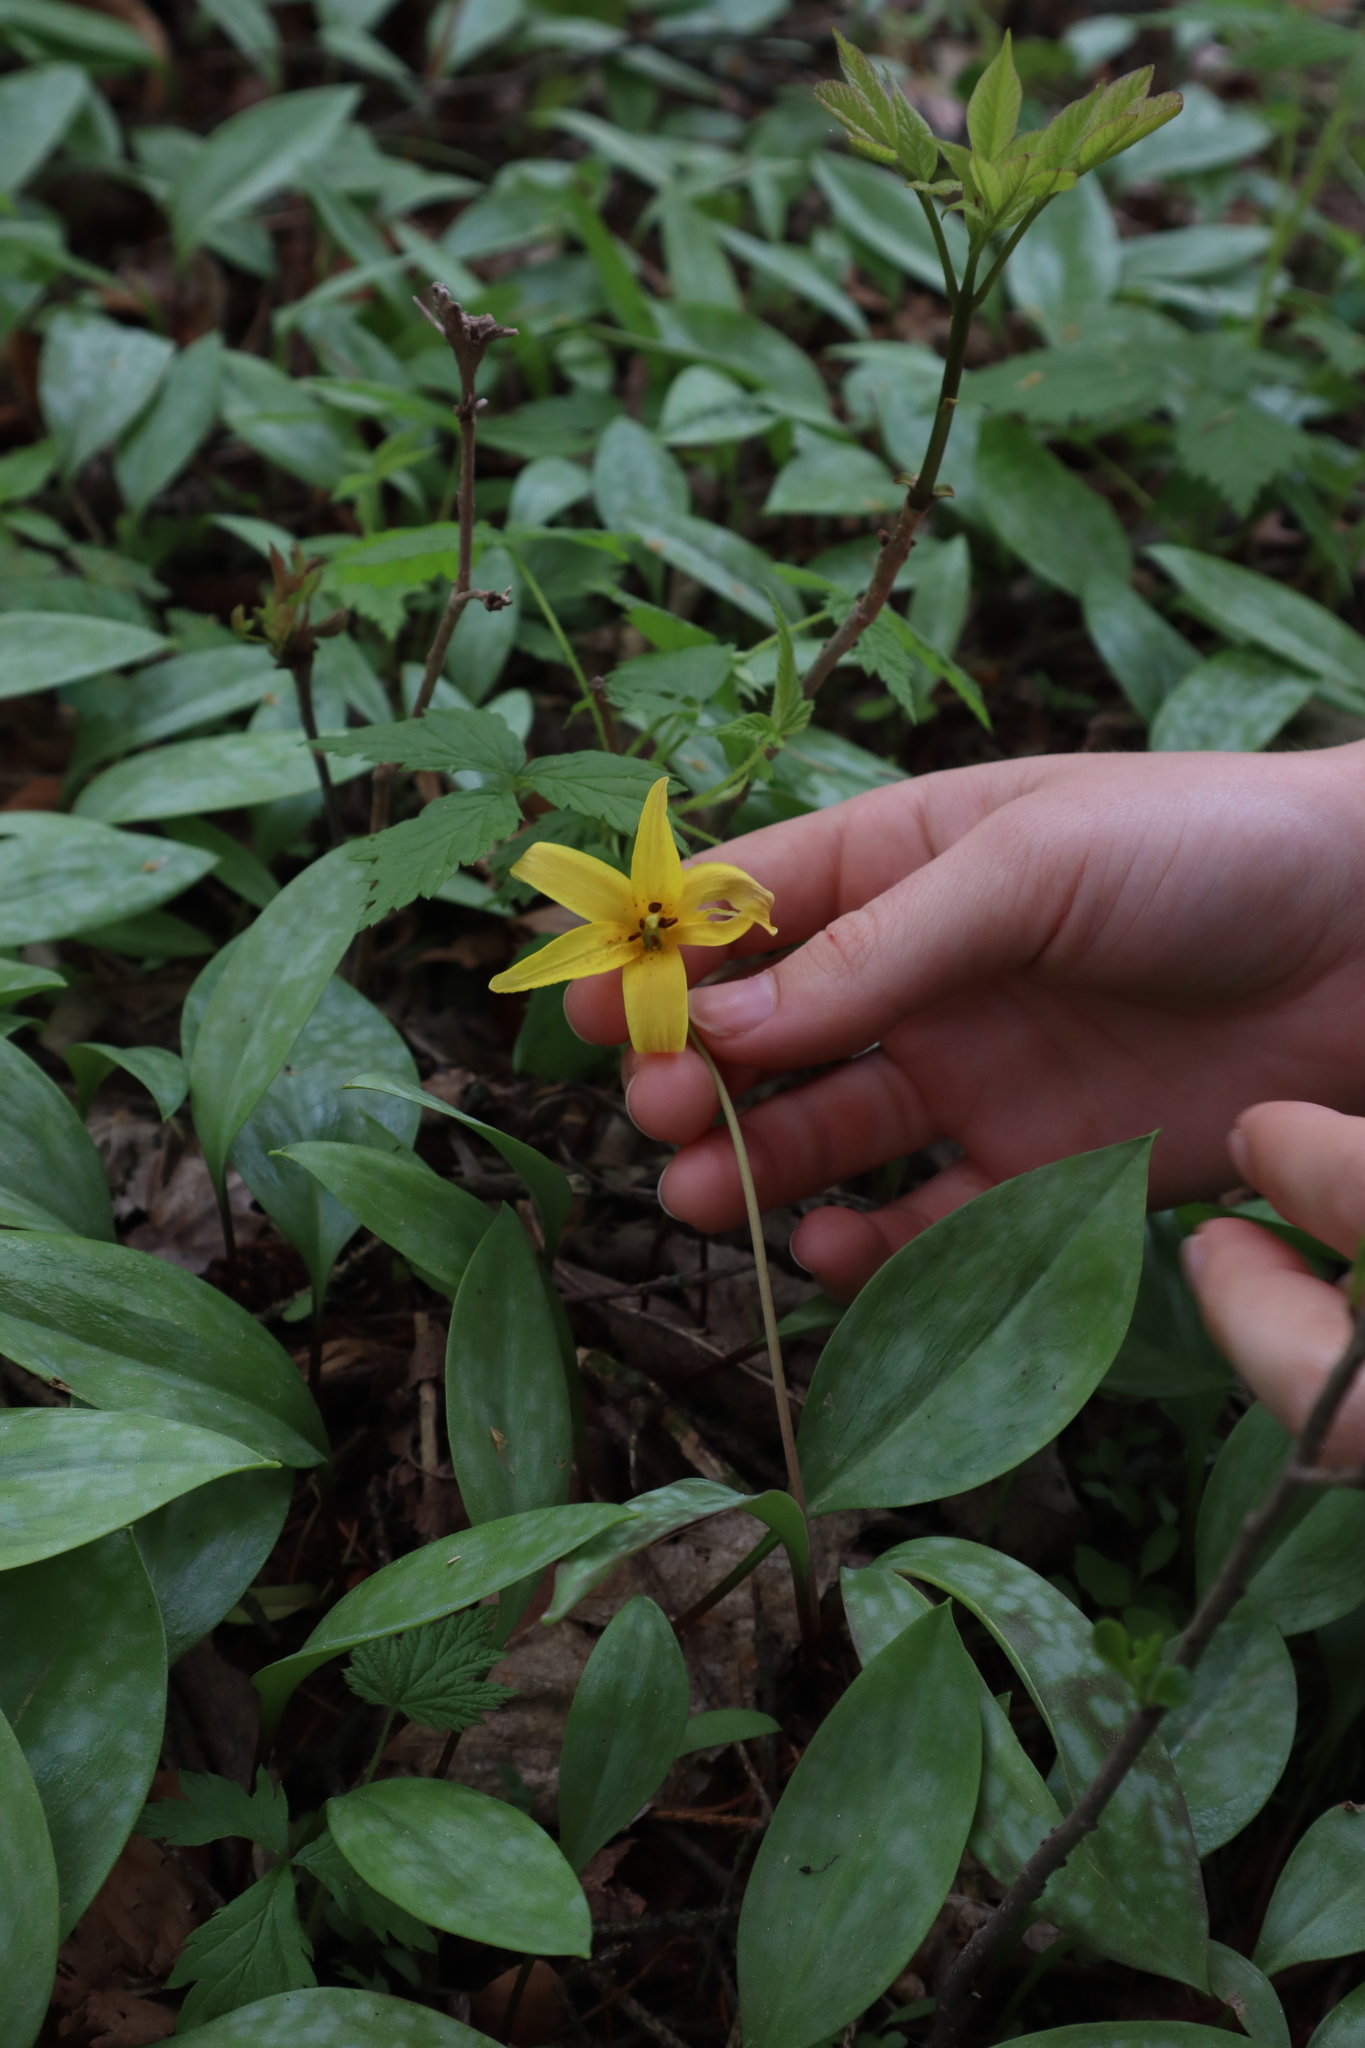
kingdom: Plantae
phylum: Tracheophyta
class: Liliopsida
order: Liliales
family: Liliaceae
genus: Erythronium
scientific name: Erythronium americanum
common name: Yellow adder's-tongue
